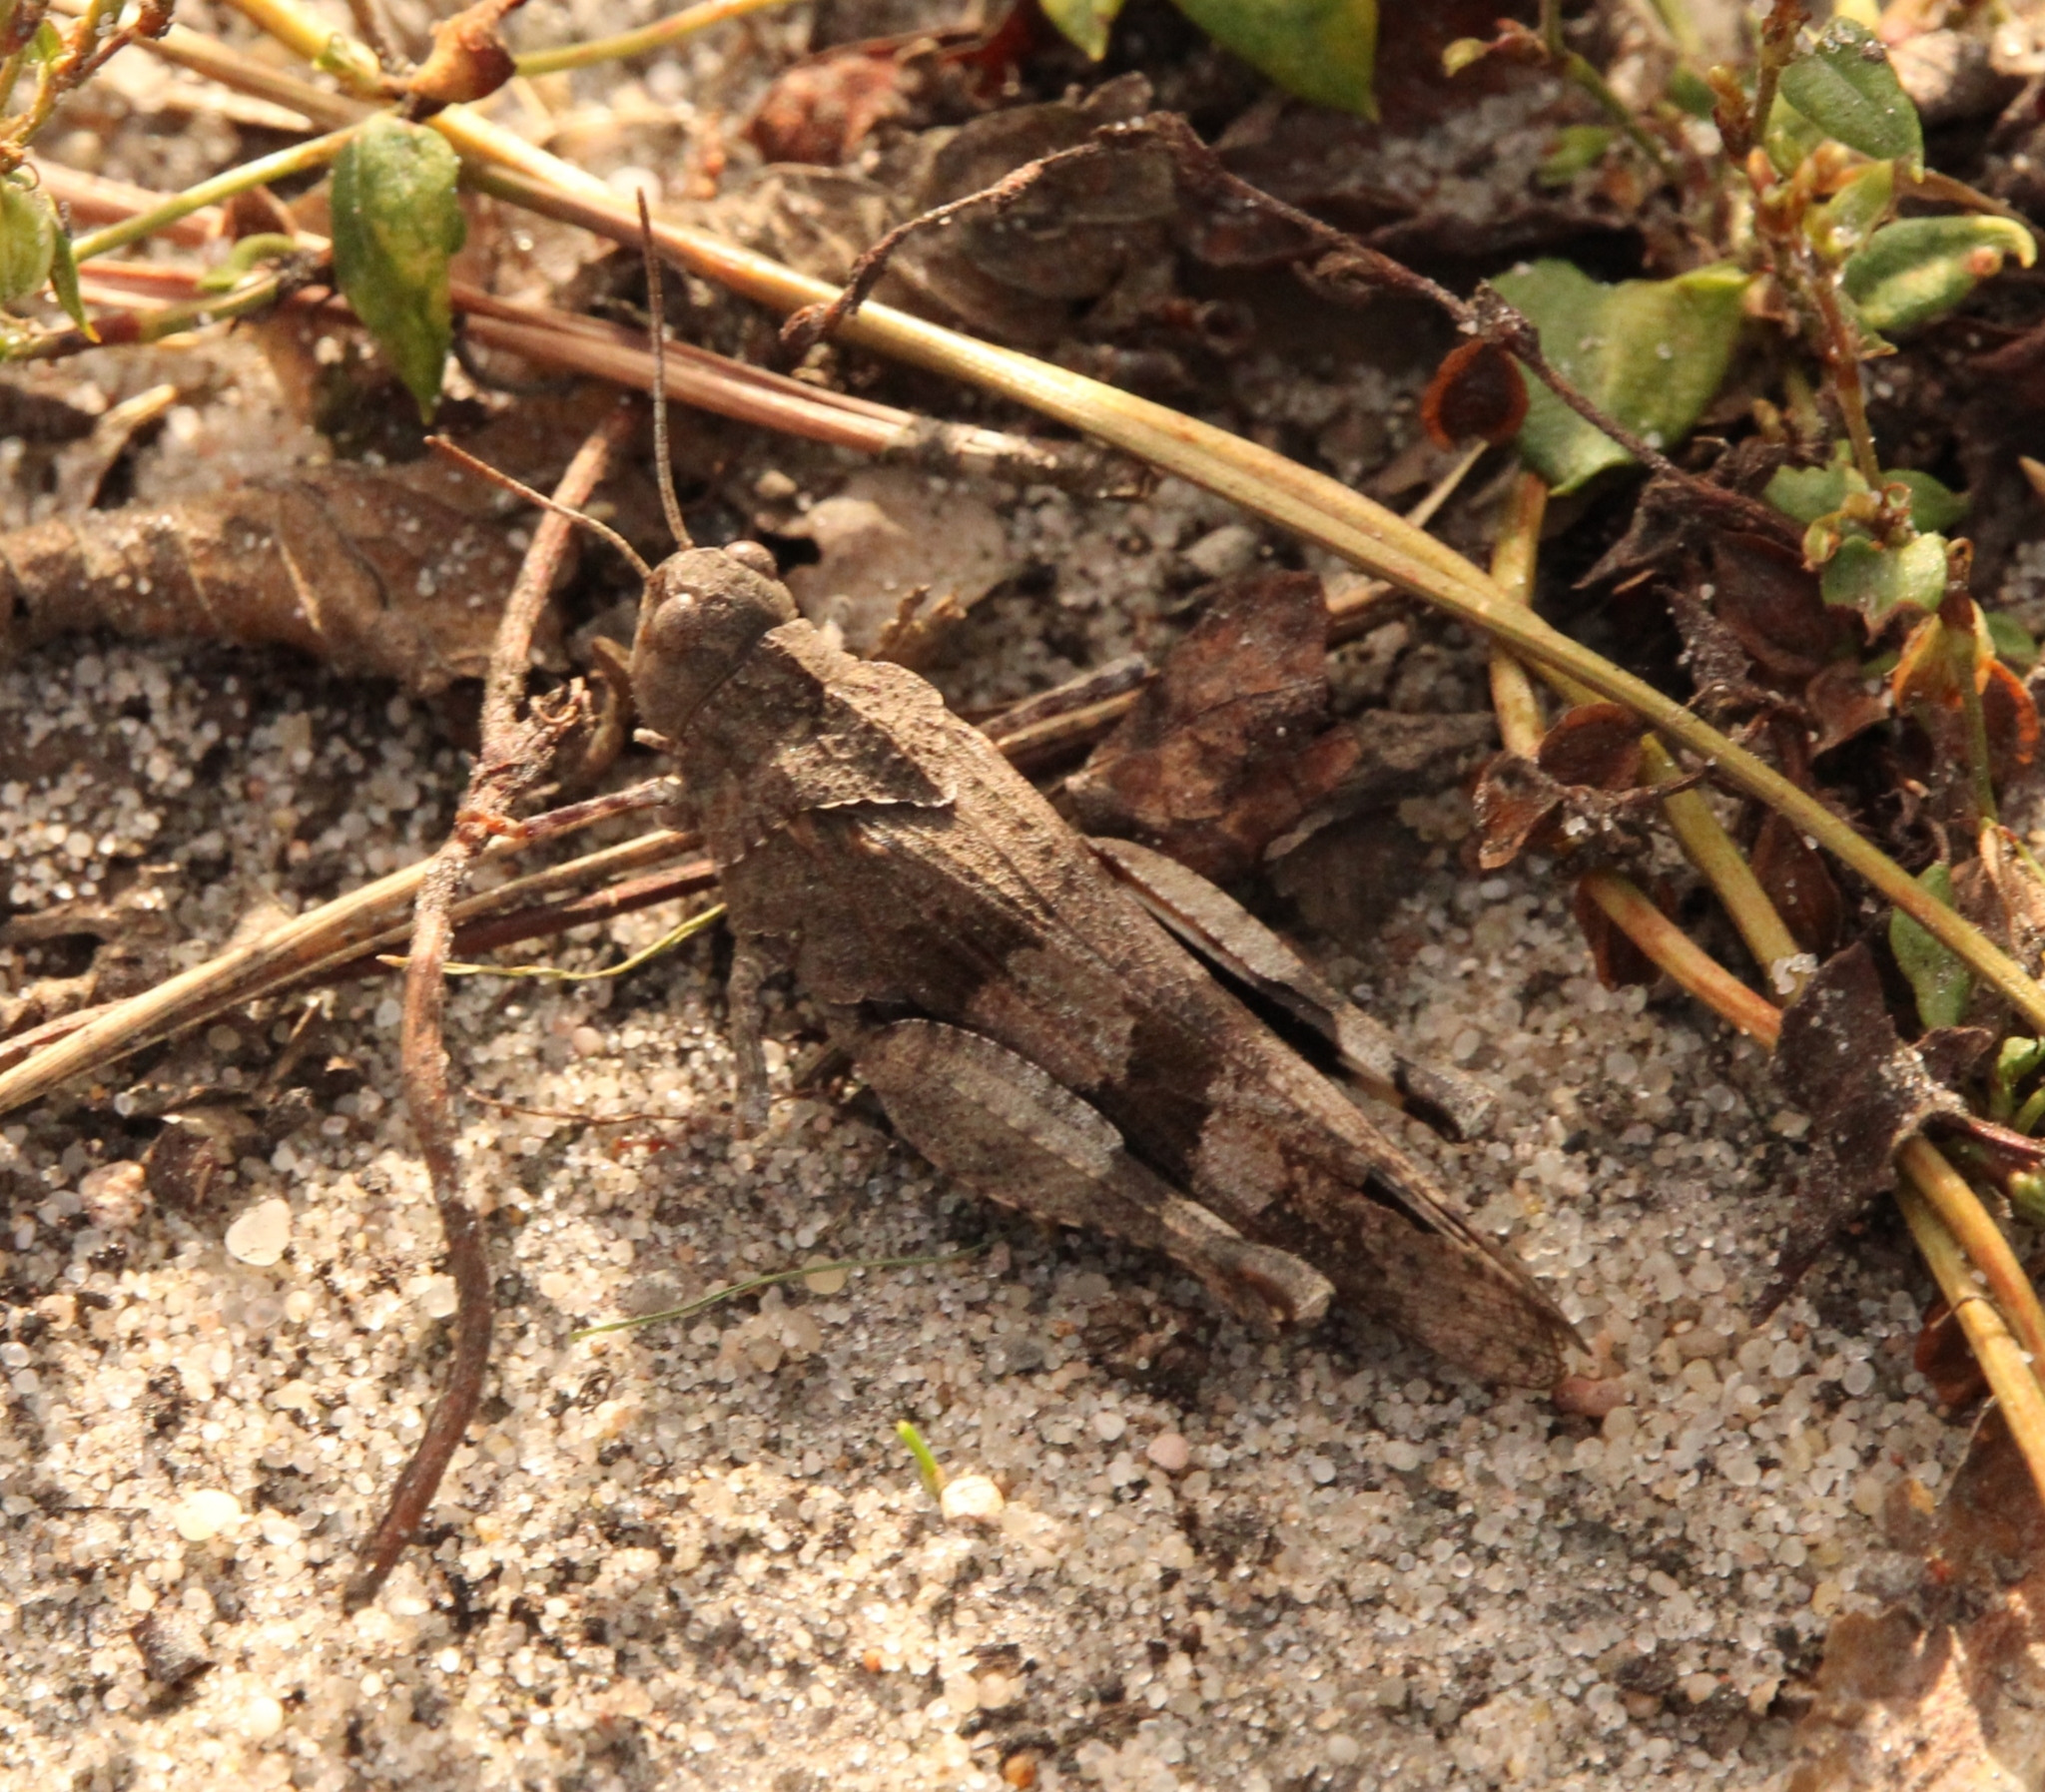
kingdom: Animalia
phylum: Arthropoda
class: Insecta
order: Orthoptera
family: Acrididae
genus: Oedipoda
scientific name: Oedipoda caerulescens
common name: Blue-winged grasshopper
